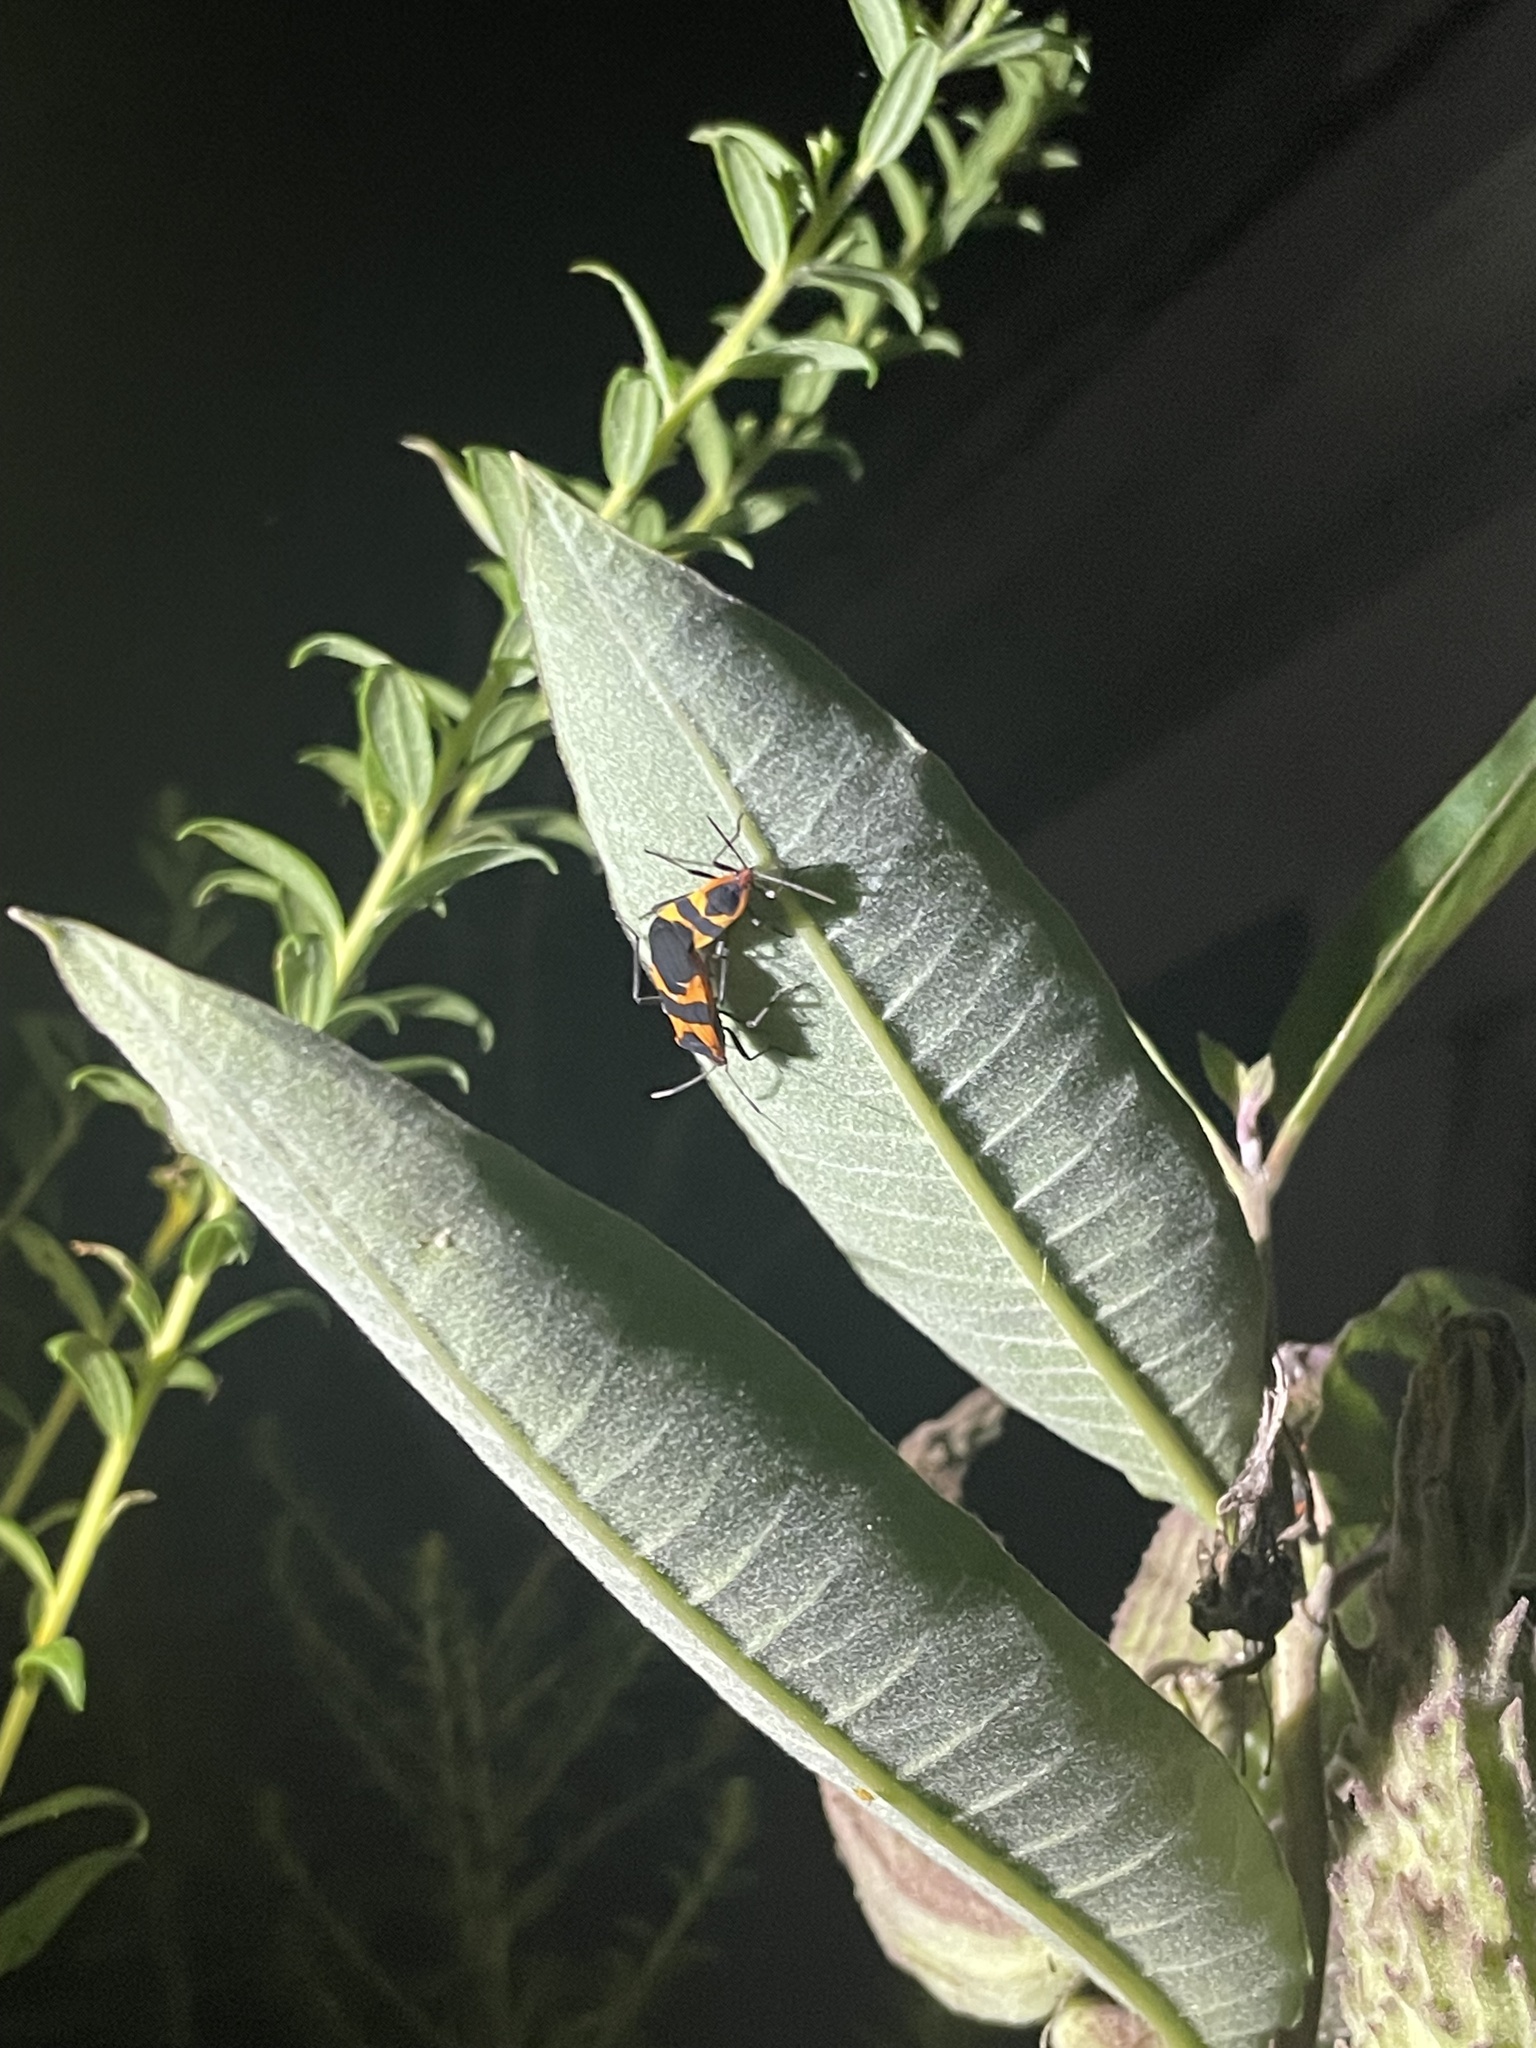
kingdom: Animalia
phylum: Arthropoda
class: Insecta
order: Hemiptera
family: Lygaeidae
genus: Oncopeltus
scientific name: Oncopeltus fasciatus
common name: Large milkweed bug
